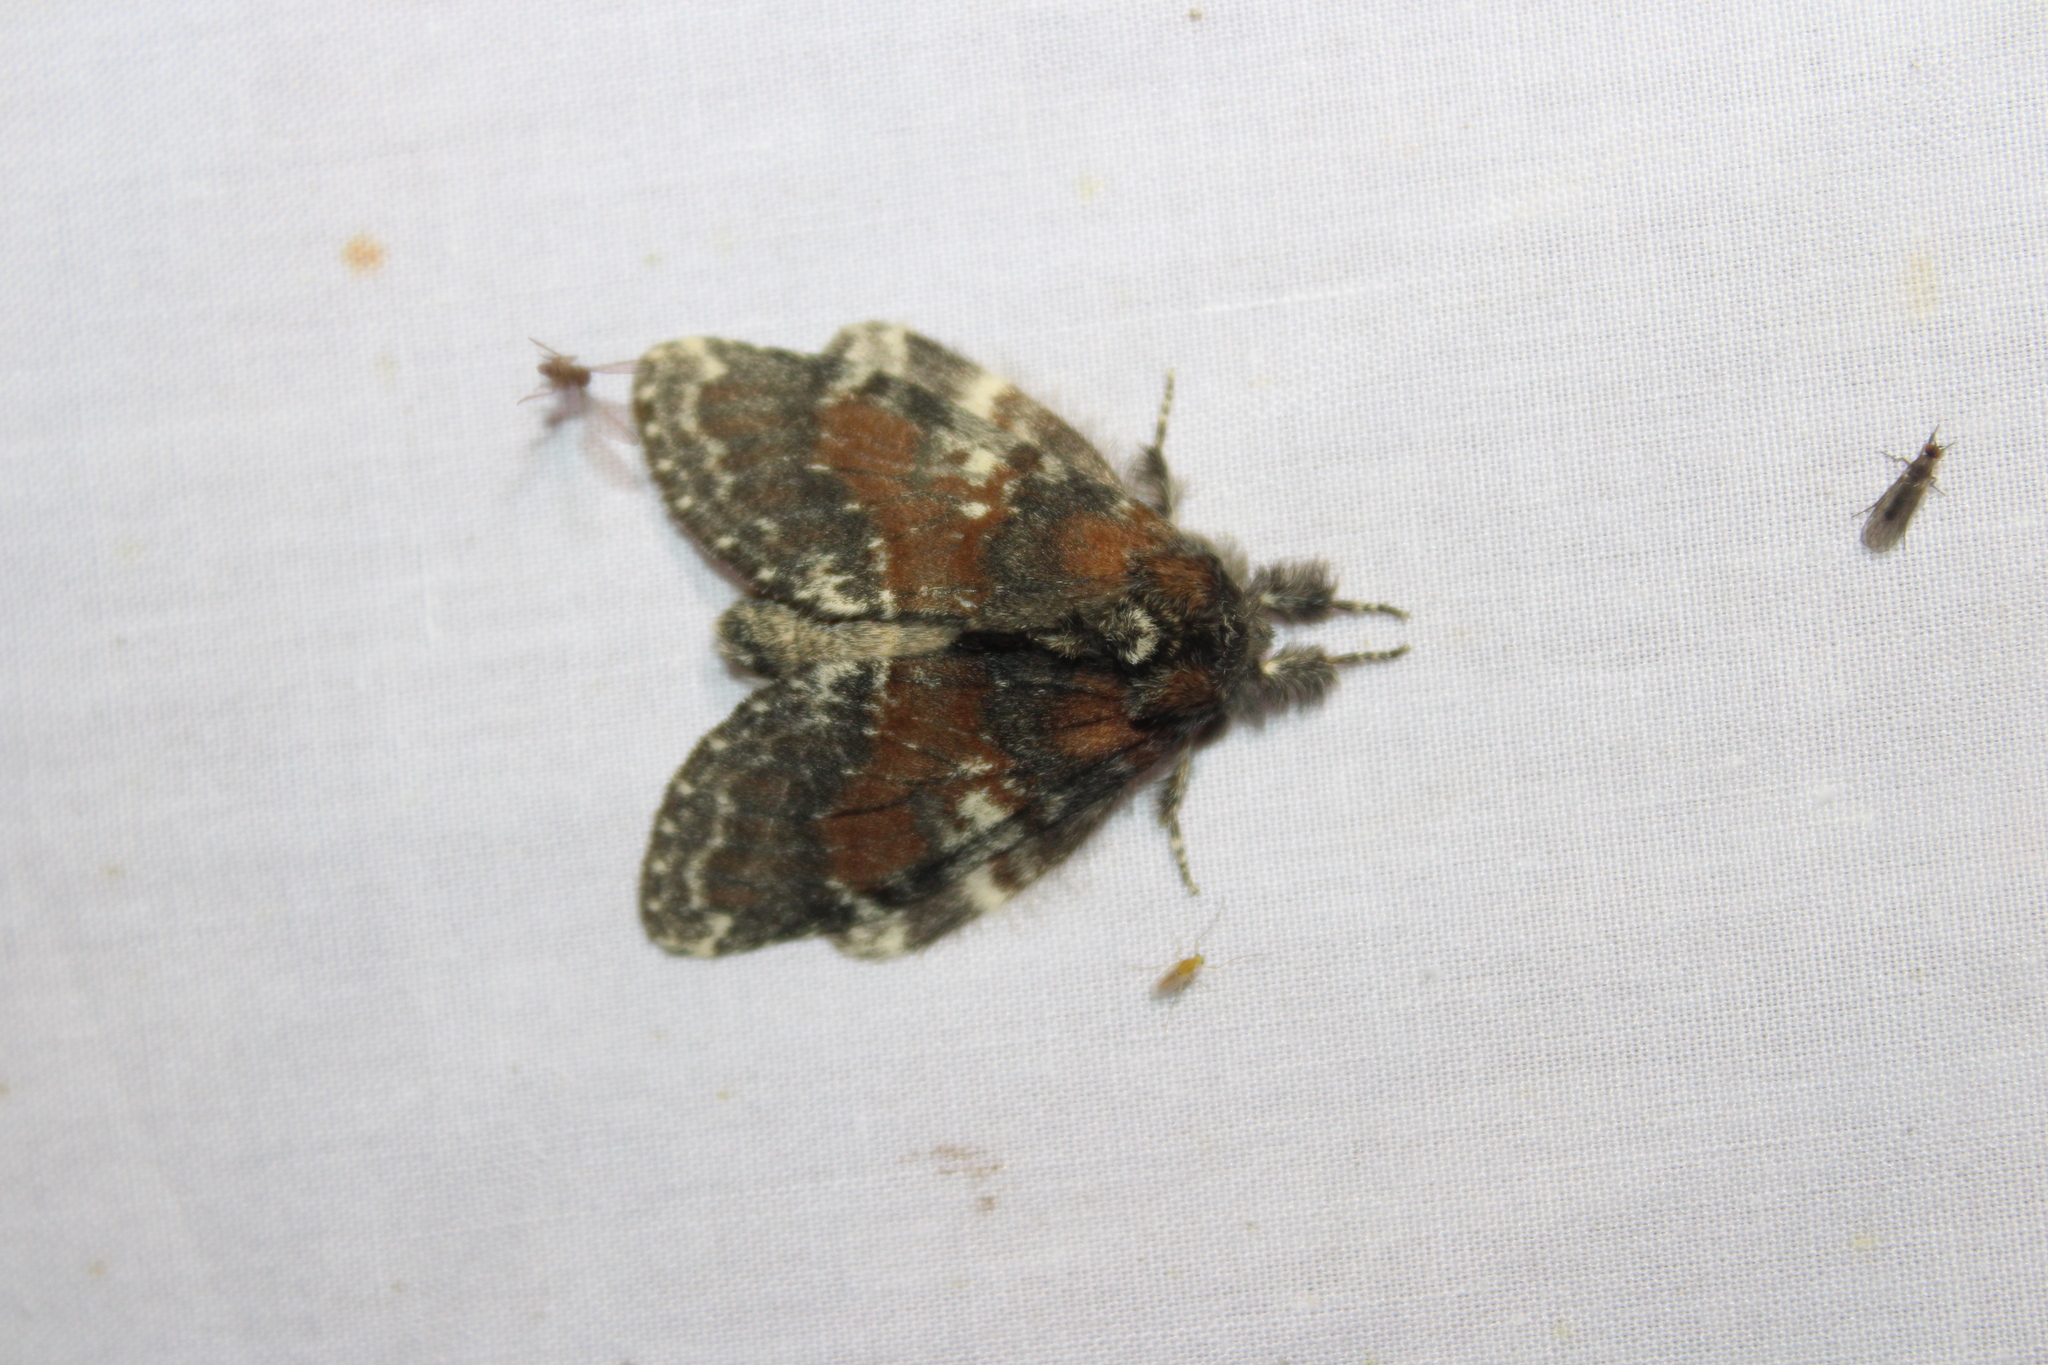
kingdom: Animalia
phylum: Arthropoda
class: Insecta
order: Lepidoptera
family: Notodontidae
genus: Peridea
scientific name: Peridea ferruginea
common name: Chocolate prominent
